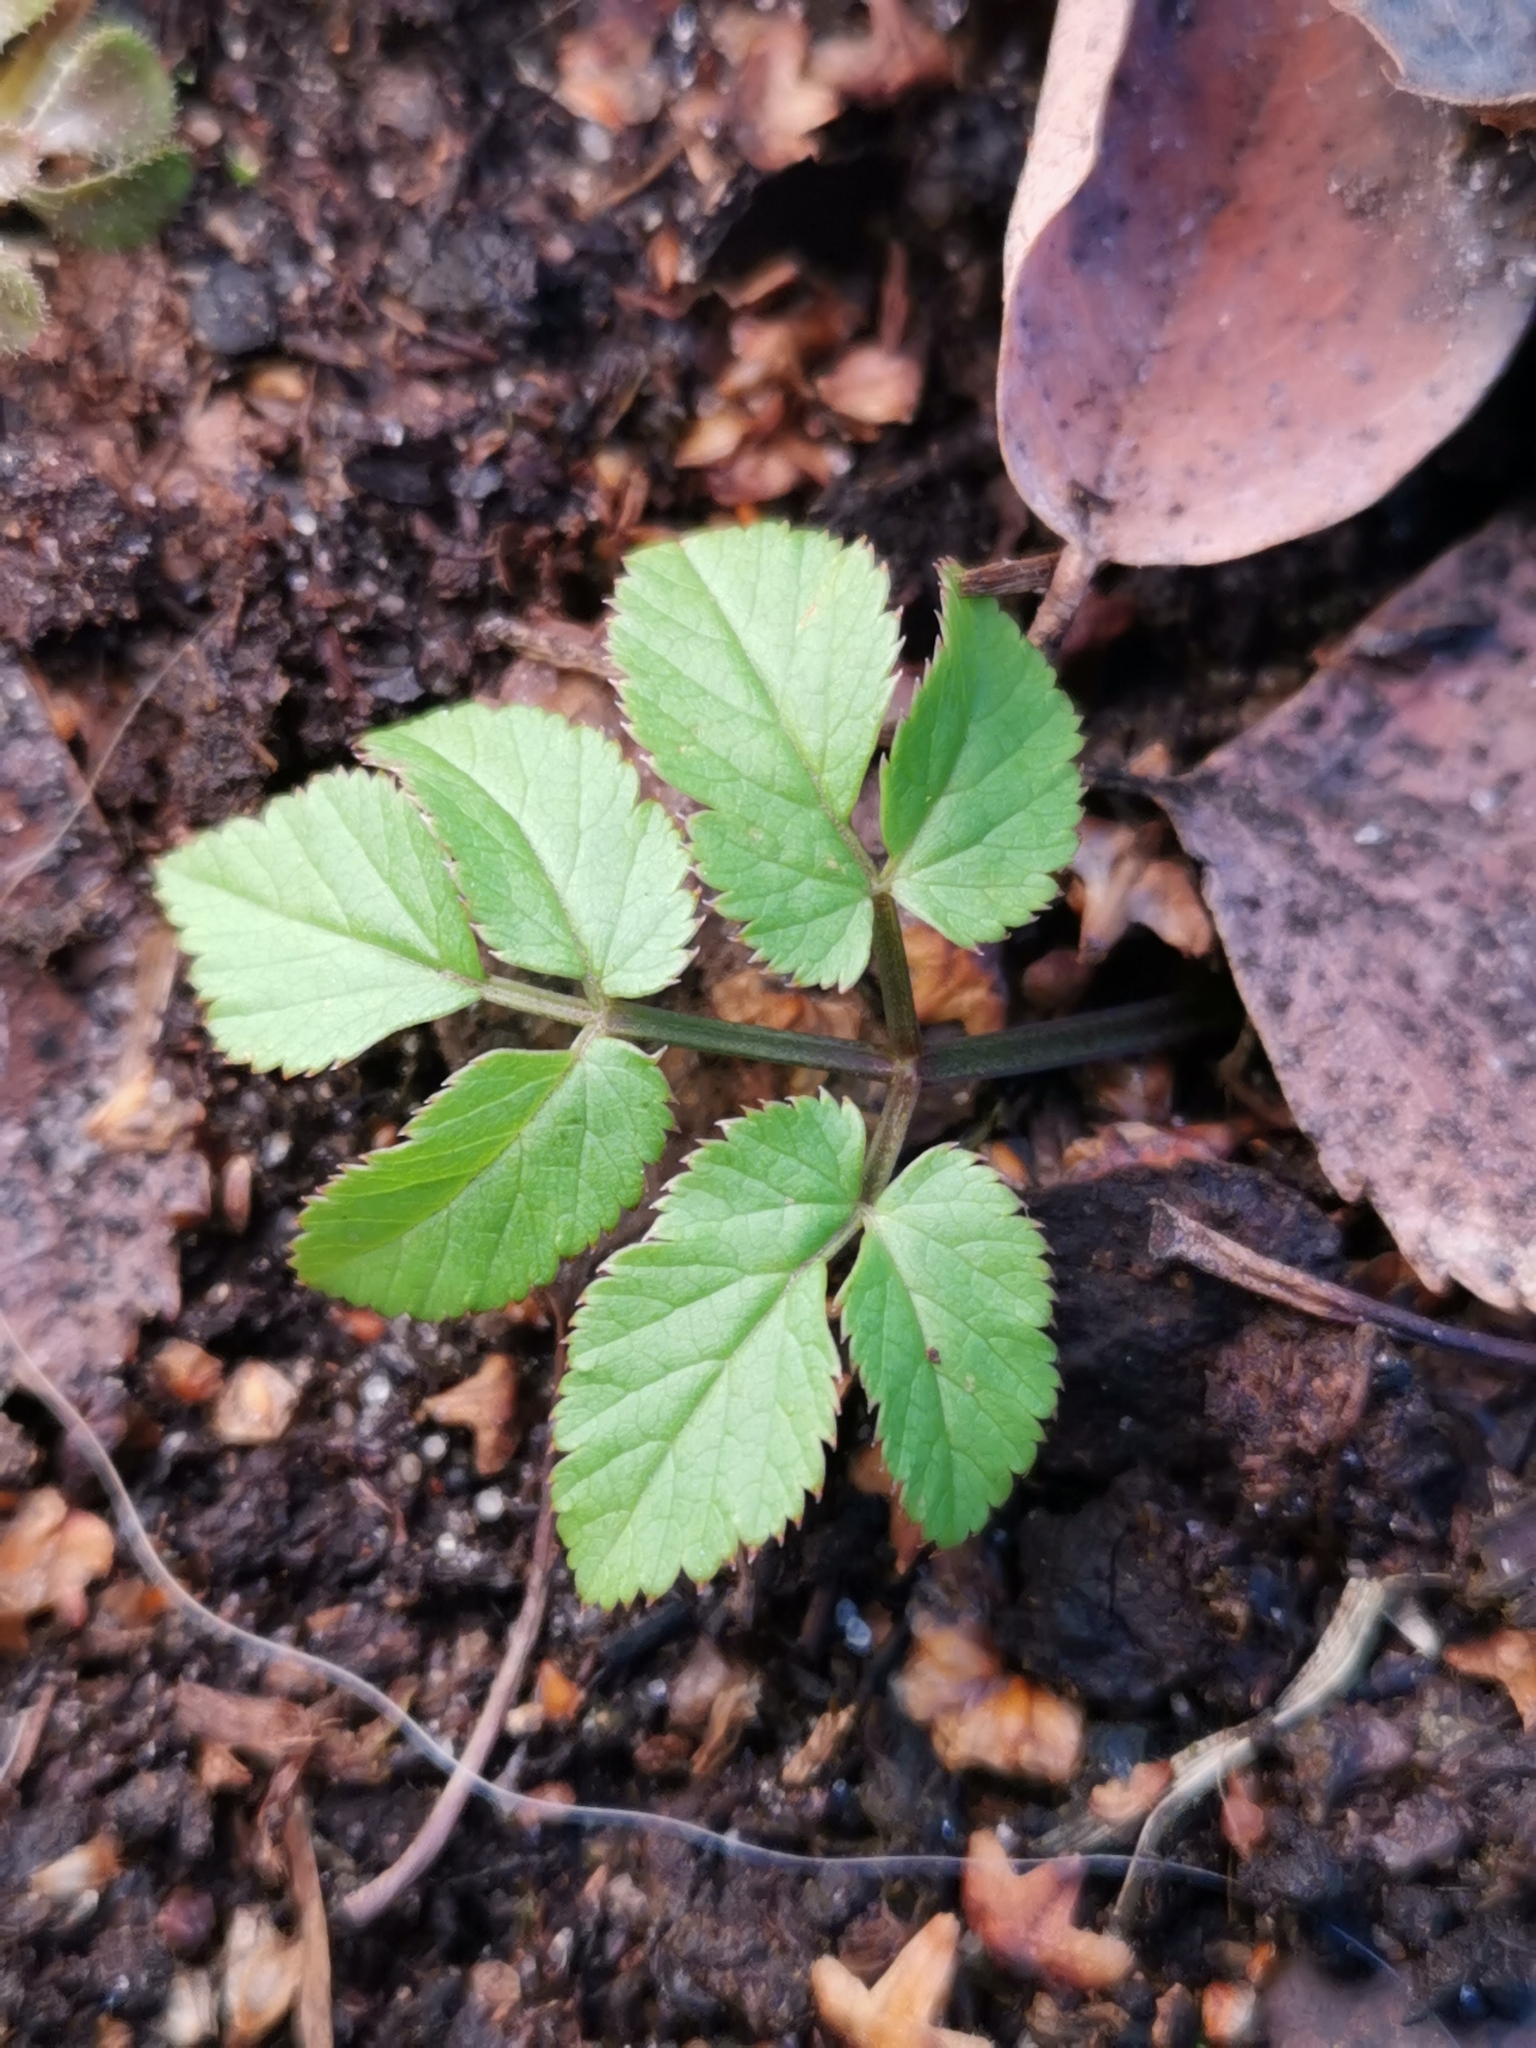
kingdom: Plantae
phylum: Tracheophyta
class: Magnoliopsida
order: Apiales
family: Apiaceae
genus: Aegopodium
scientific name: Aegopodium podagraria
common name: Ground-elder
